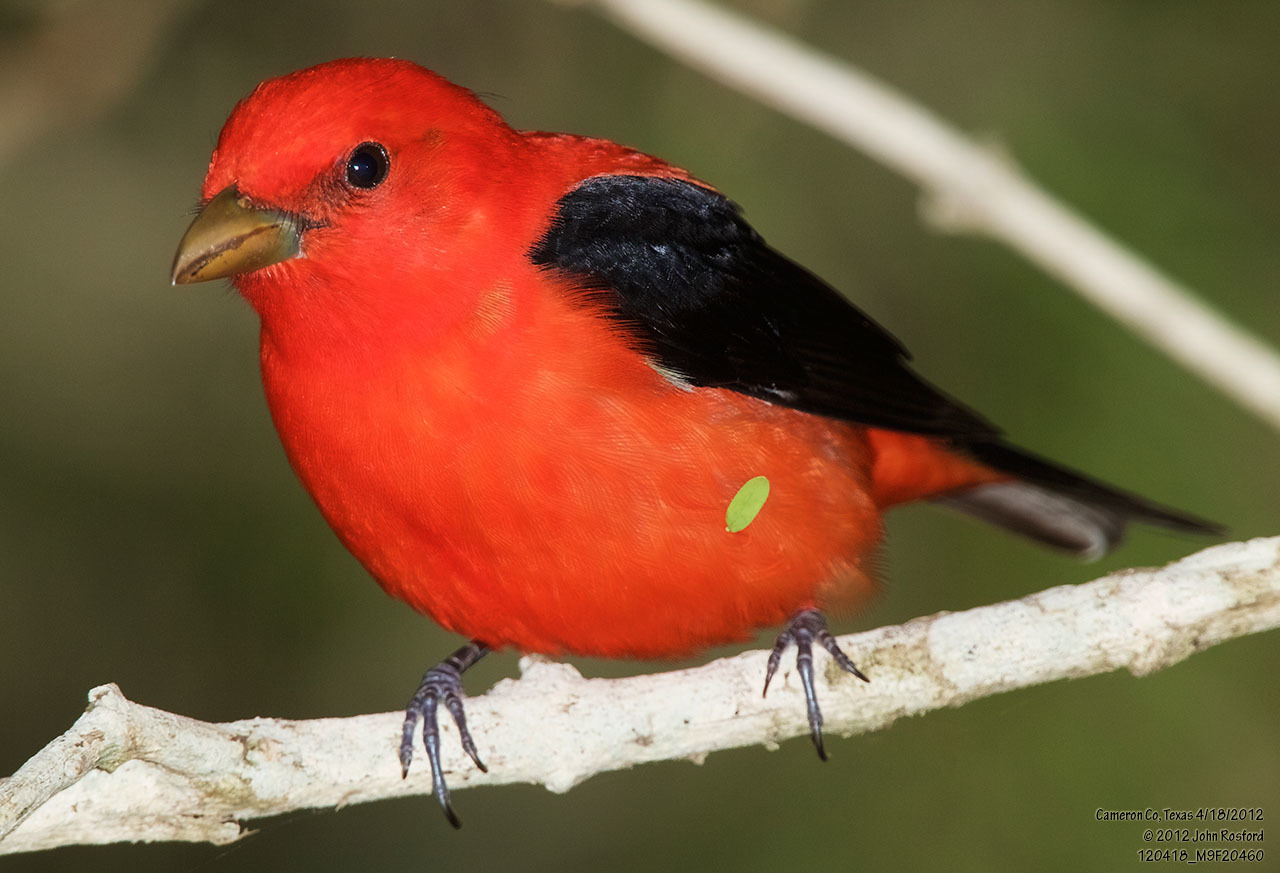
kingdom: Animalia
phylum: Chordata
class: Aves
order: Passeriformes
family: Cardinalidae
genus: Piranga
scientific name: Piranga olivacea
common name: Scarlet tanager
